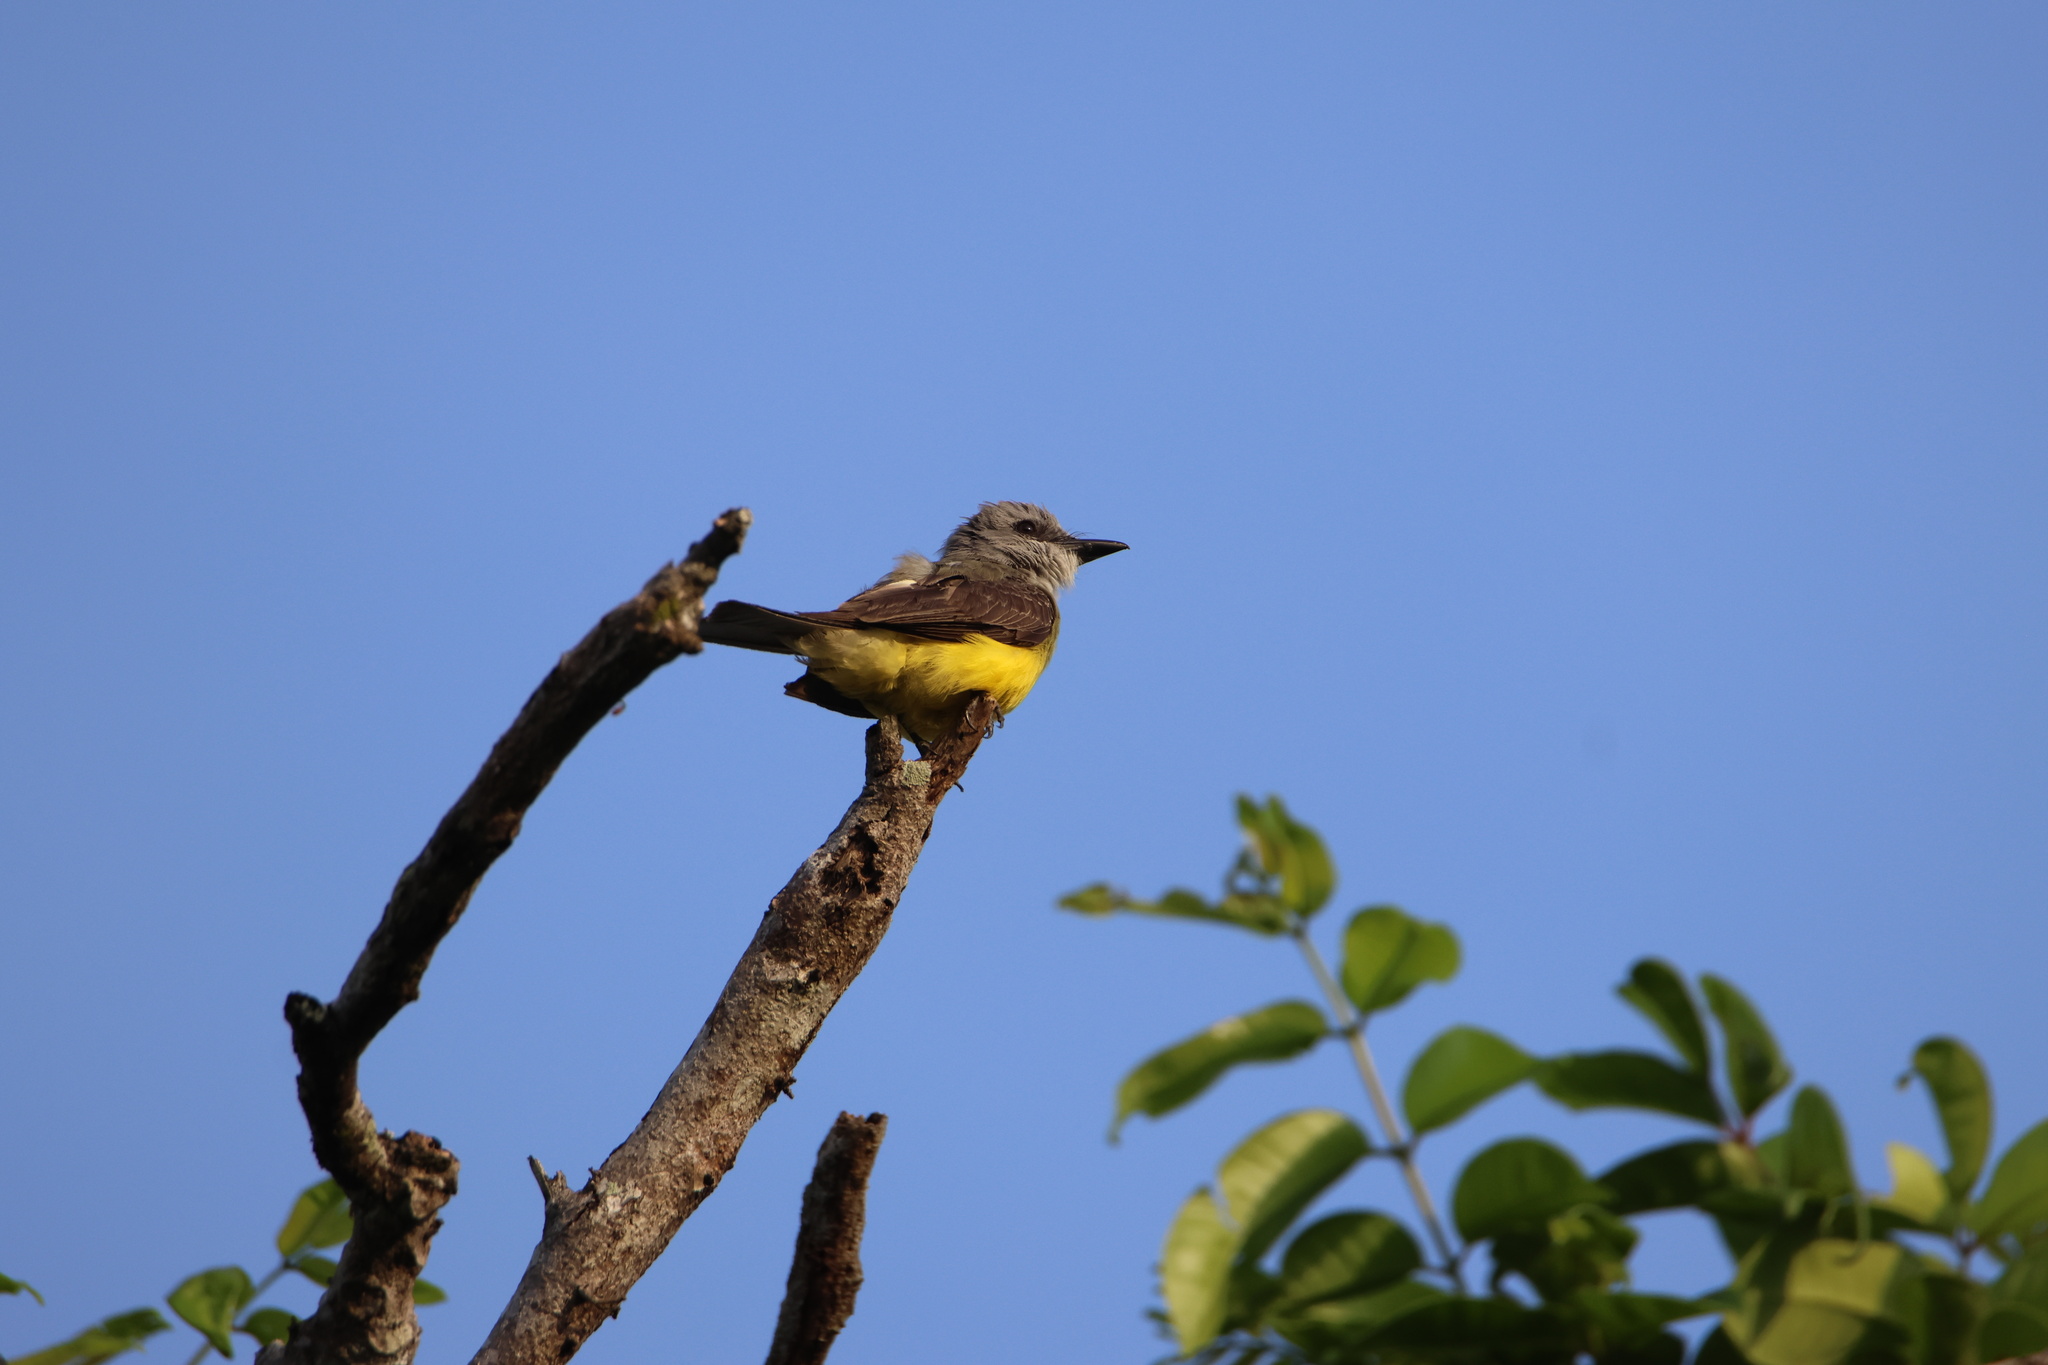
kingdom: Animalia
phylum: Chordata
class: Aves
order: Passeriformes
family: Tyrannidae
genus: Tyrannus
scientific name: Tyrannus melancholicus
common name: Tropical kingbird
